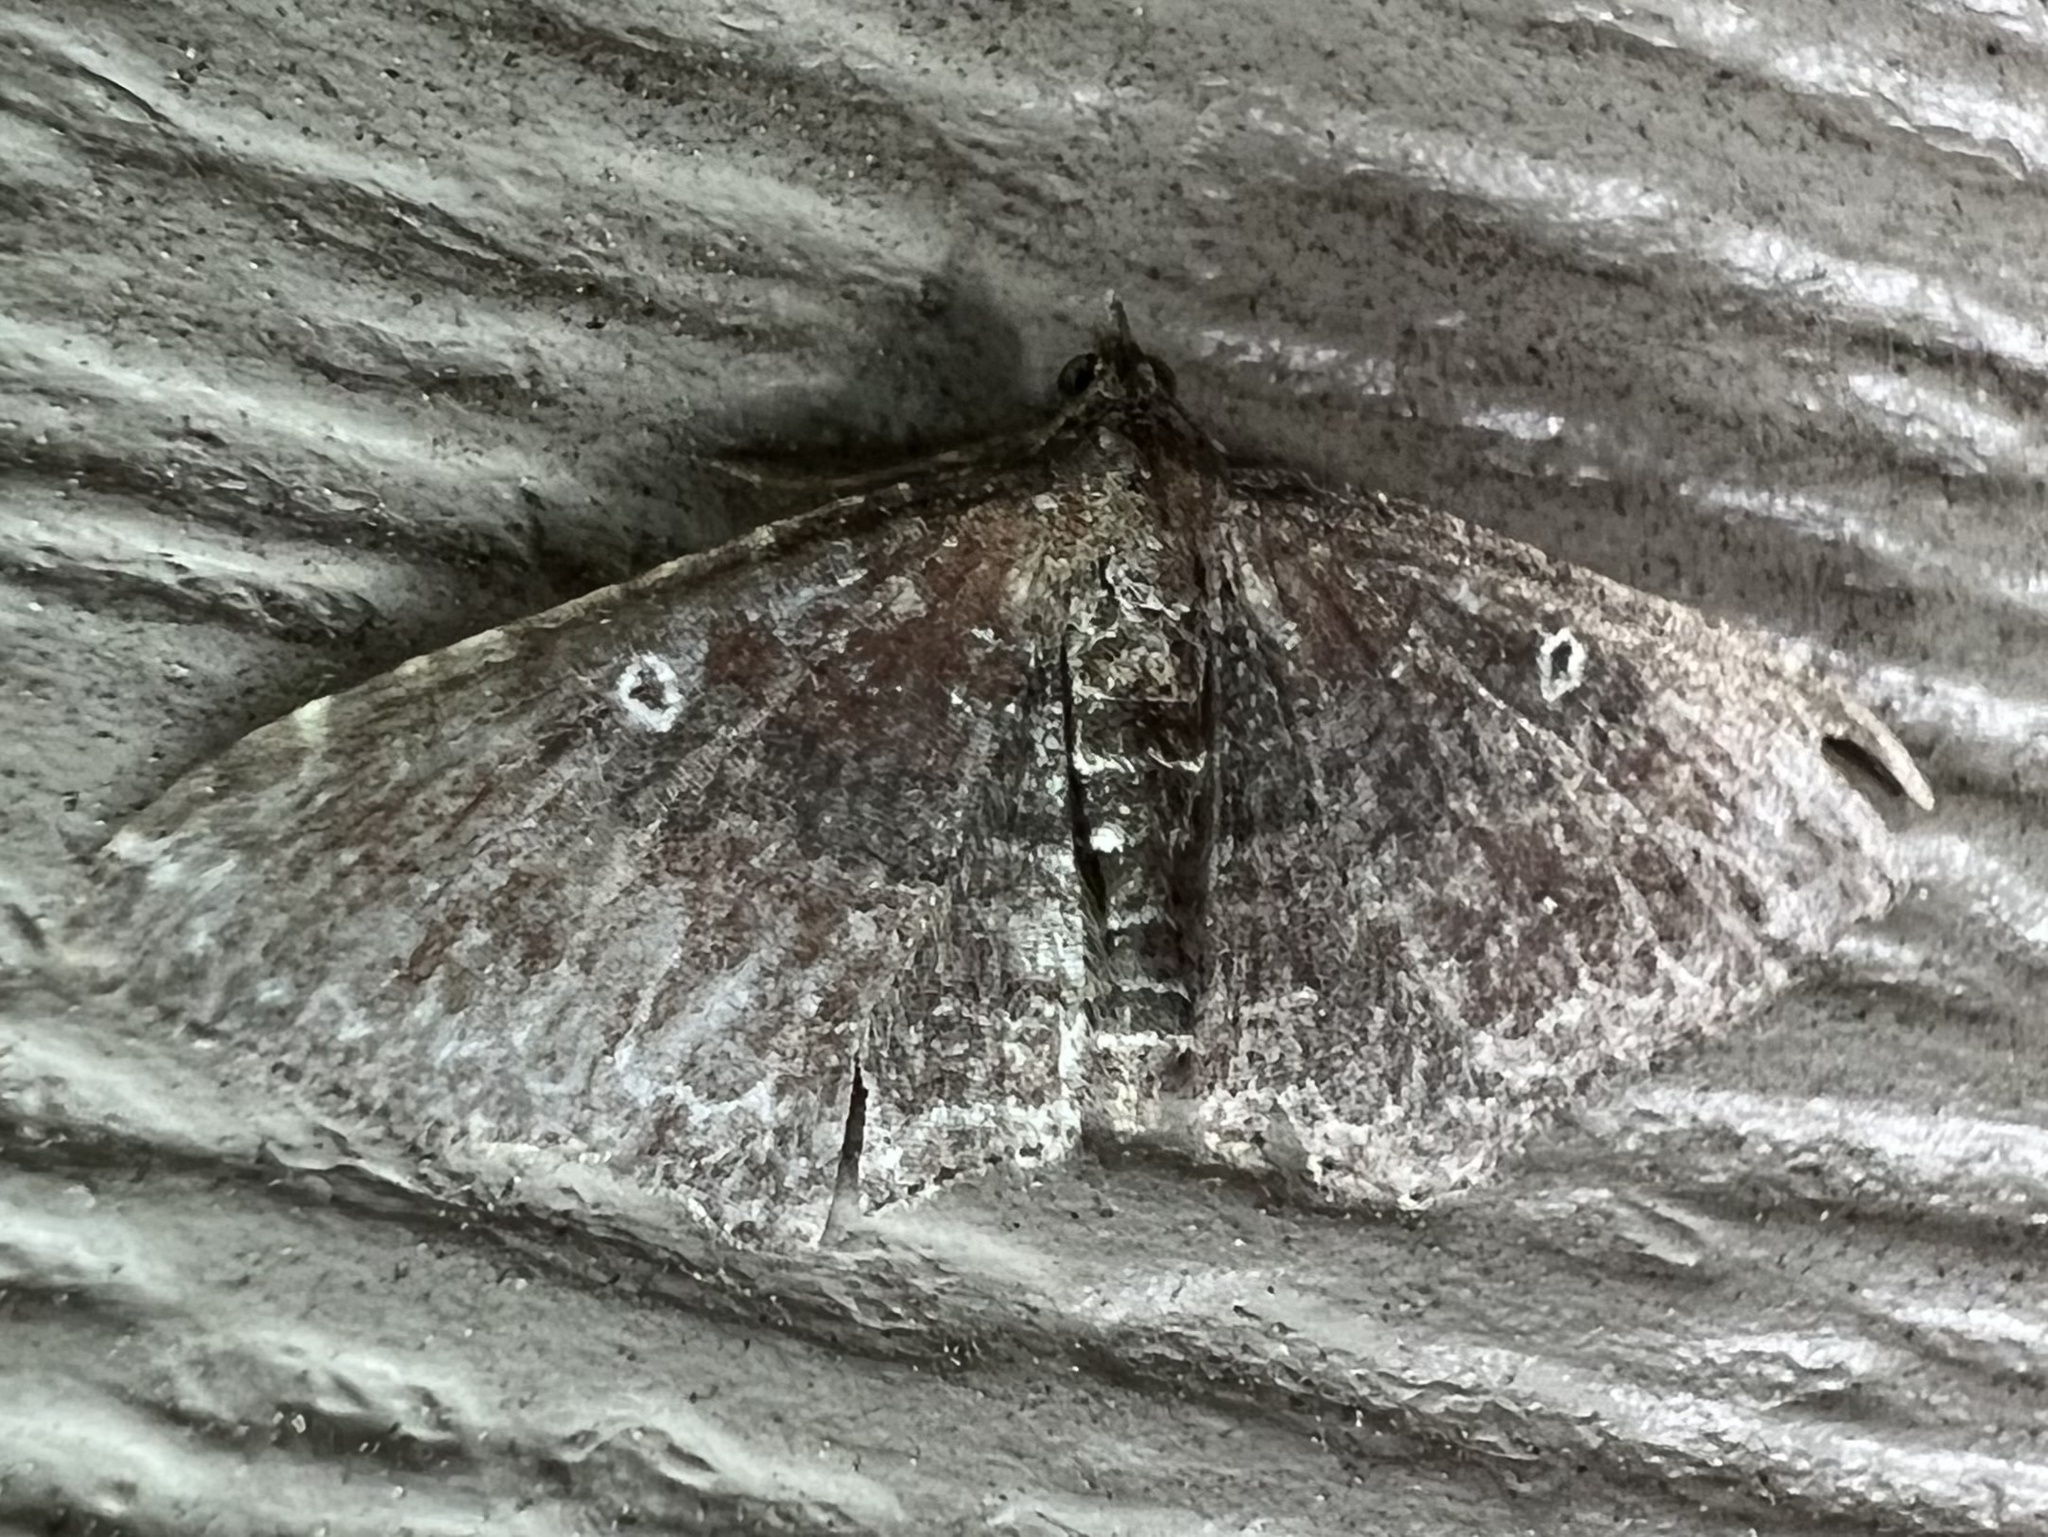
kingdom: Animalia
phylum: Arthropoda
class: Insecta
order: Lepidoptera
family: Geometridae
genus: Orthonama
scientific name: Orthonama obstipata
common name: The gem
